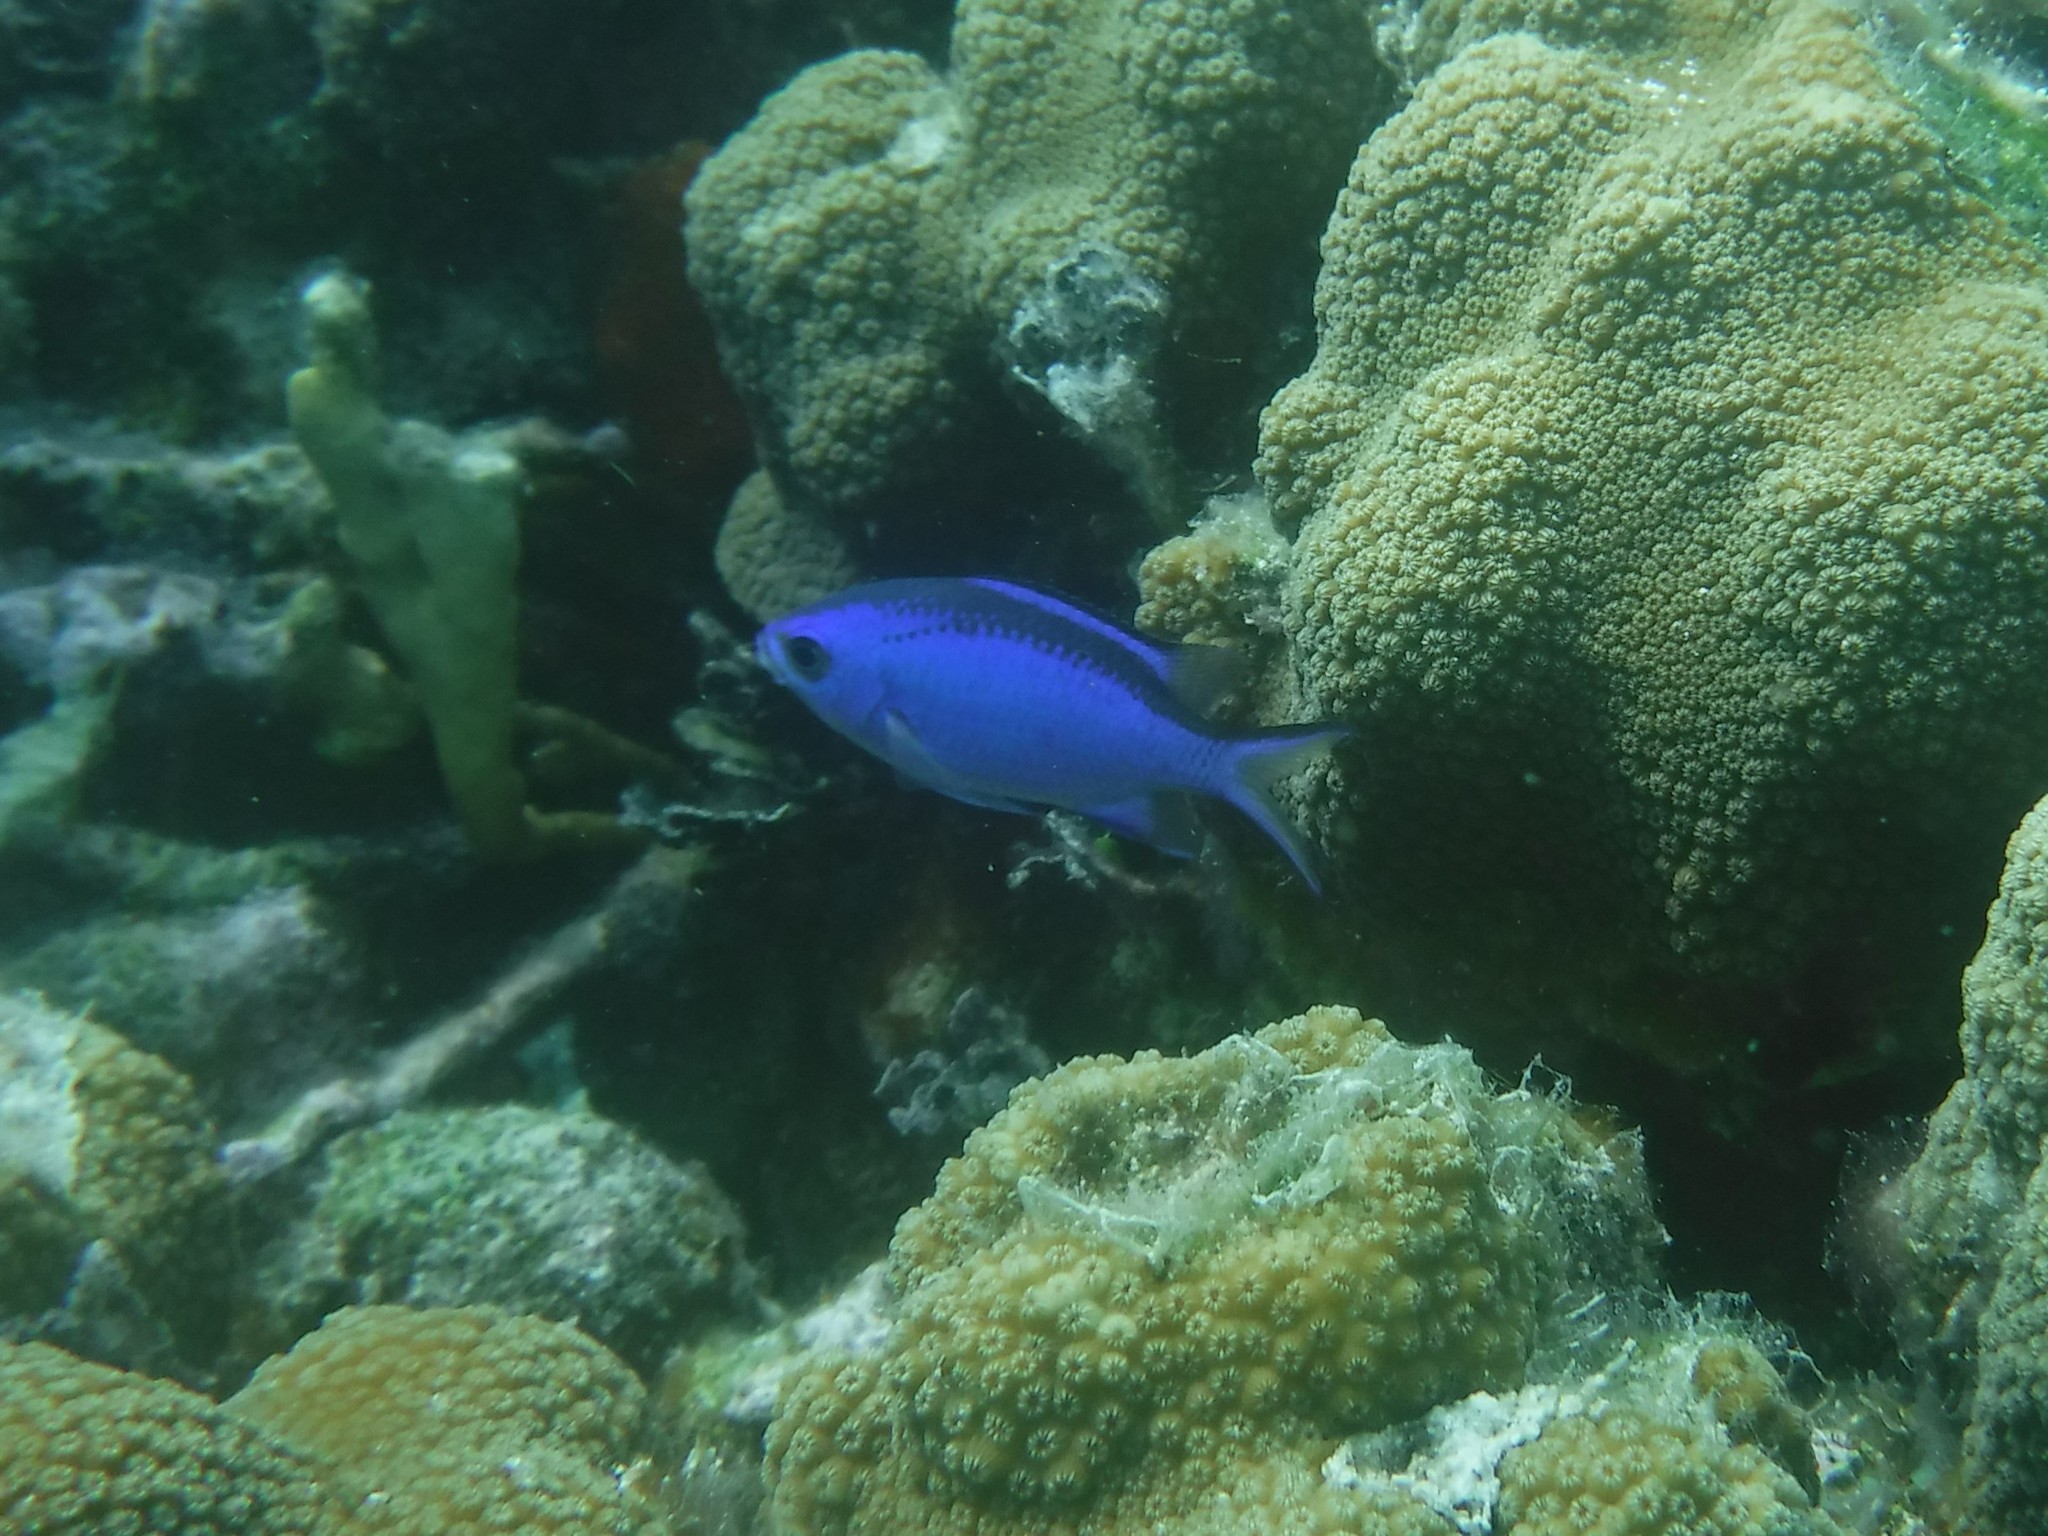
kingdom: Animalia
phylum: Chordata
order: Perciformes
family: Pomacentridae
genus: Chromis
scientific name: Chromis cyanea
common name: Blue chromis
